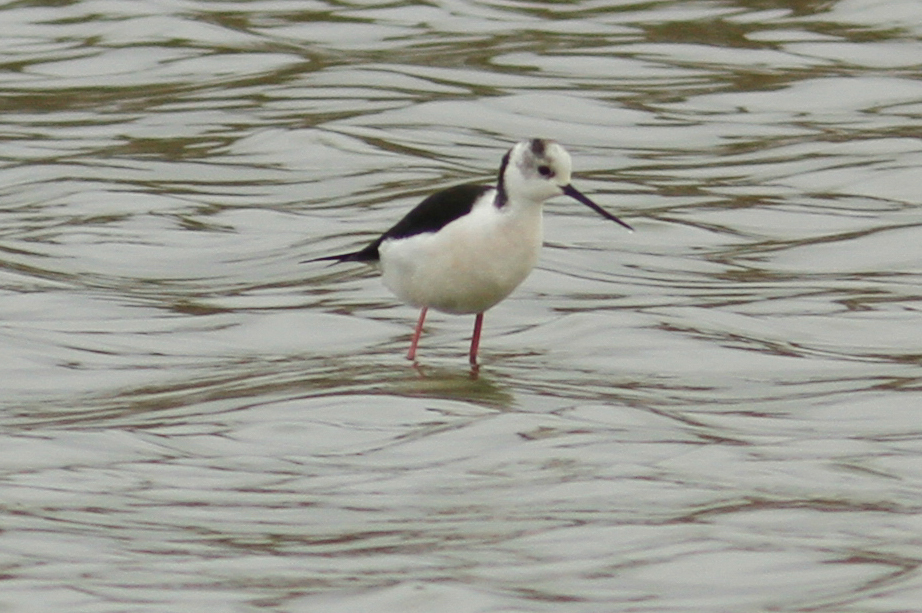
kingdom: Animalia
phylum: Chordata
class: Aves
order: Charadriiformes
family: Recurvirostridae
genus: Himantopus
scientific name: Himantopus himantopus
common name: Black-winged stilt
